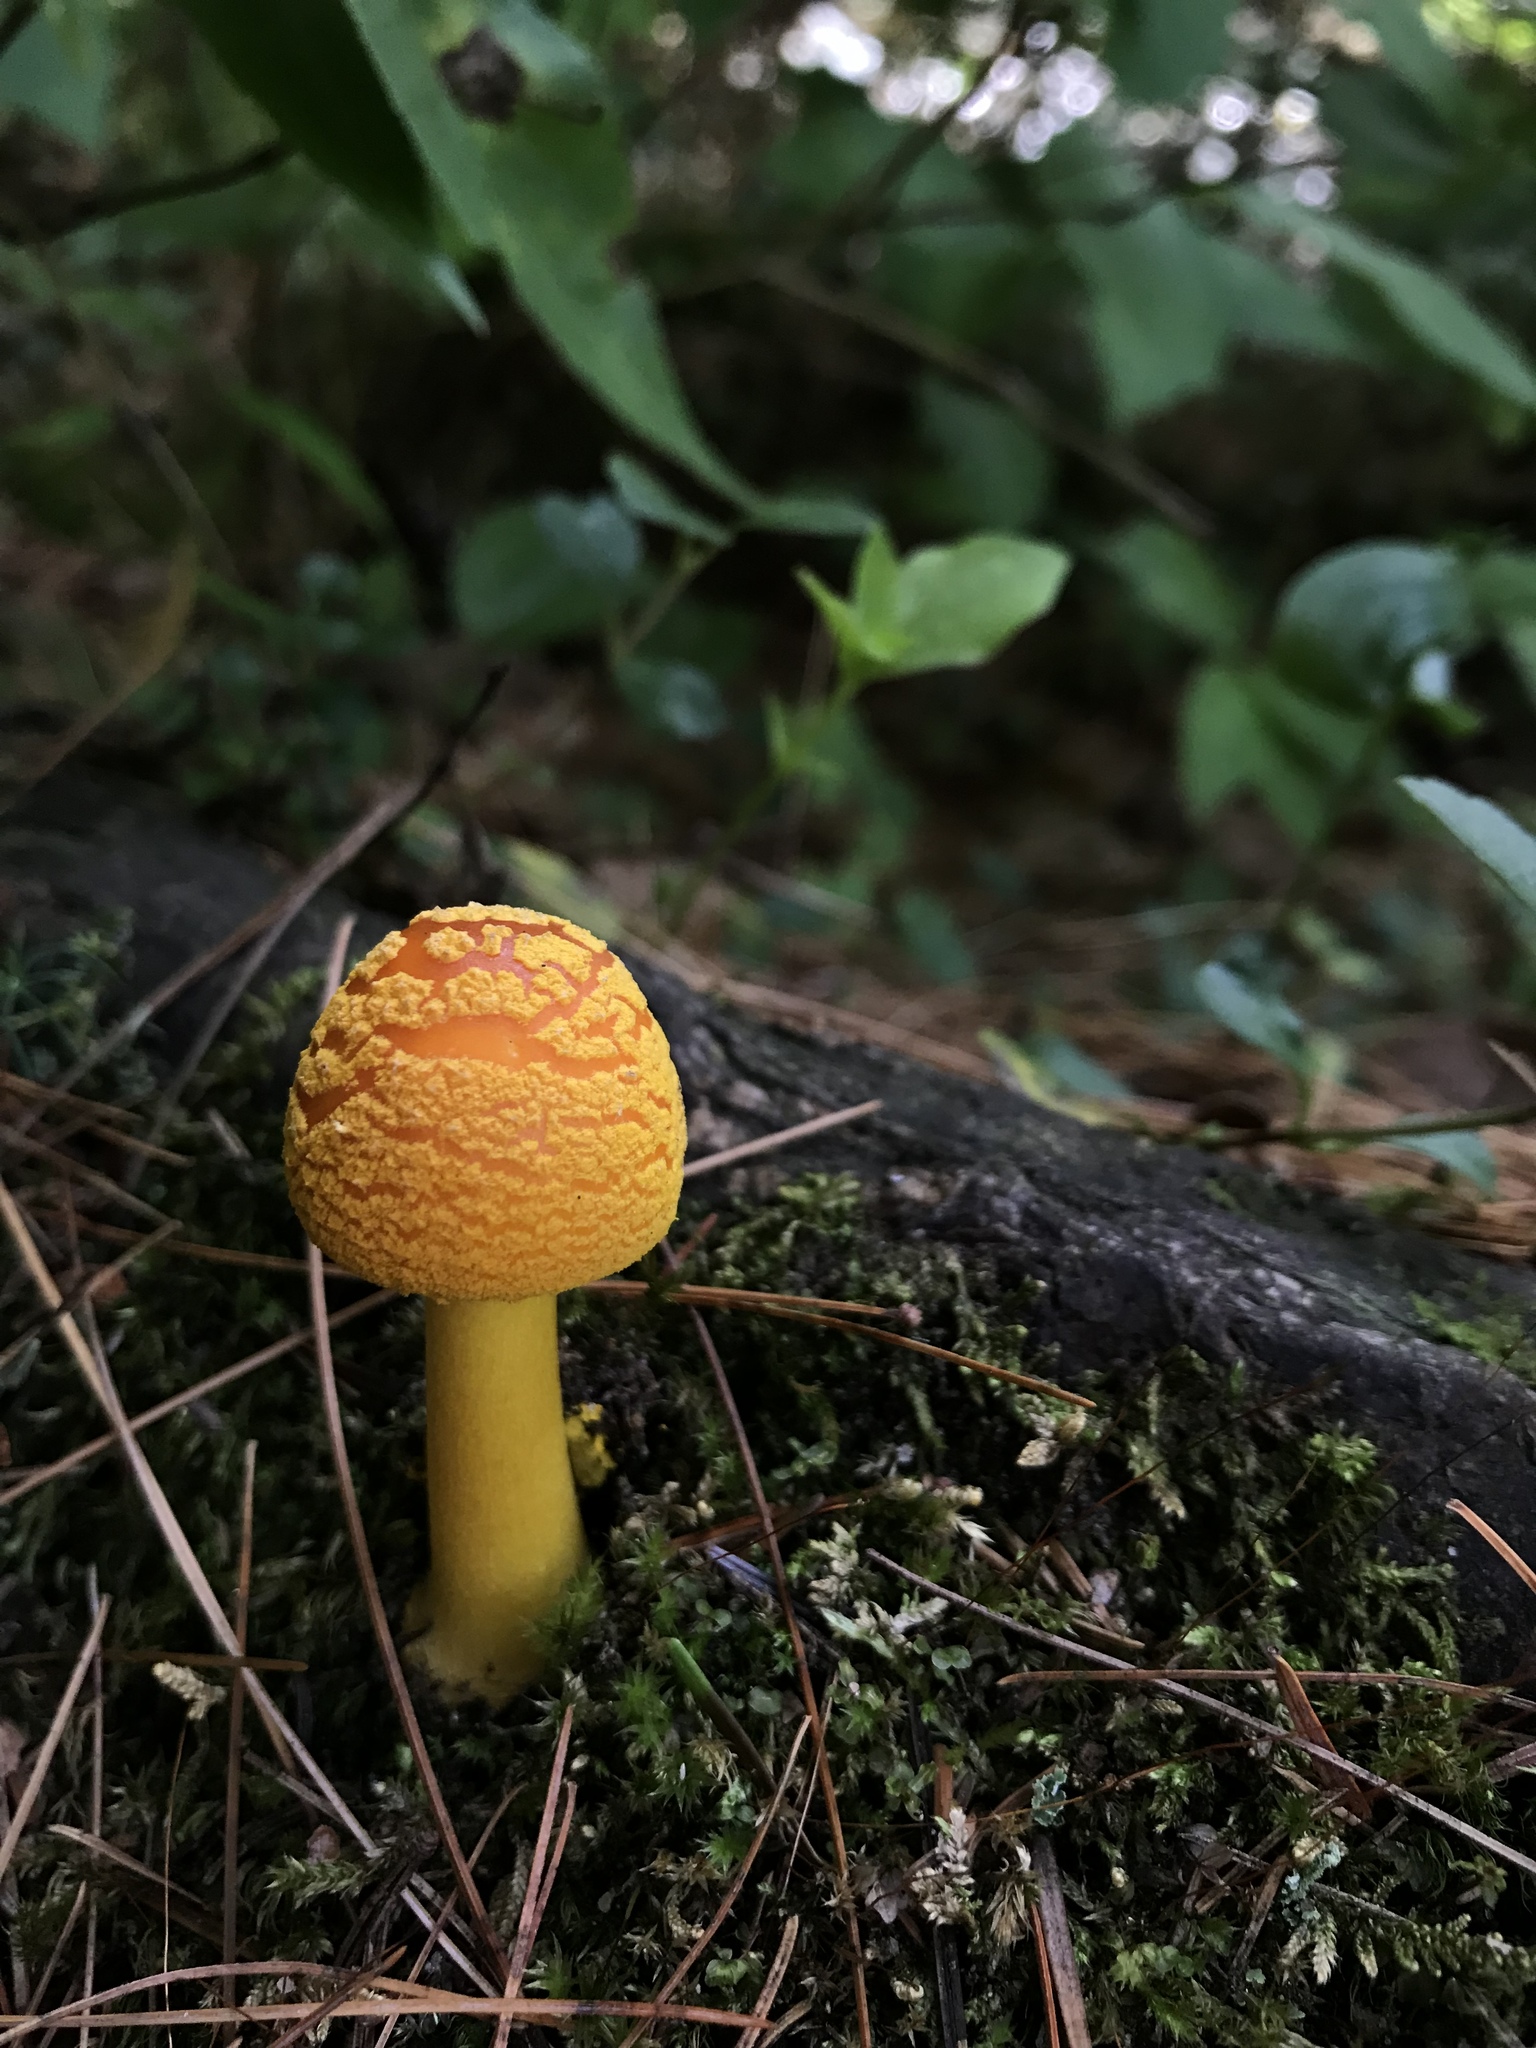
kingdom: Fungi
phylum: Basidiomycota
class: Agaricomycetes
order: Agaricales
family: Amanitaceae
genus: Amanita
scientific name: Amanita flavoconia
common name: Yellow patches
